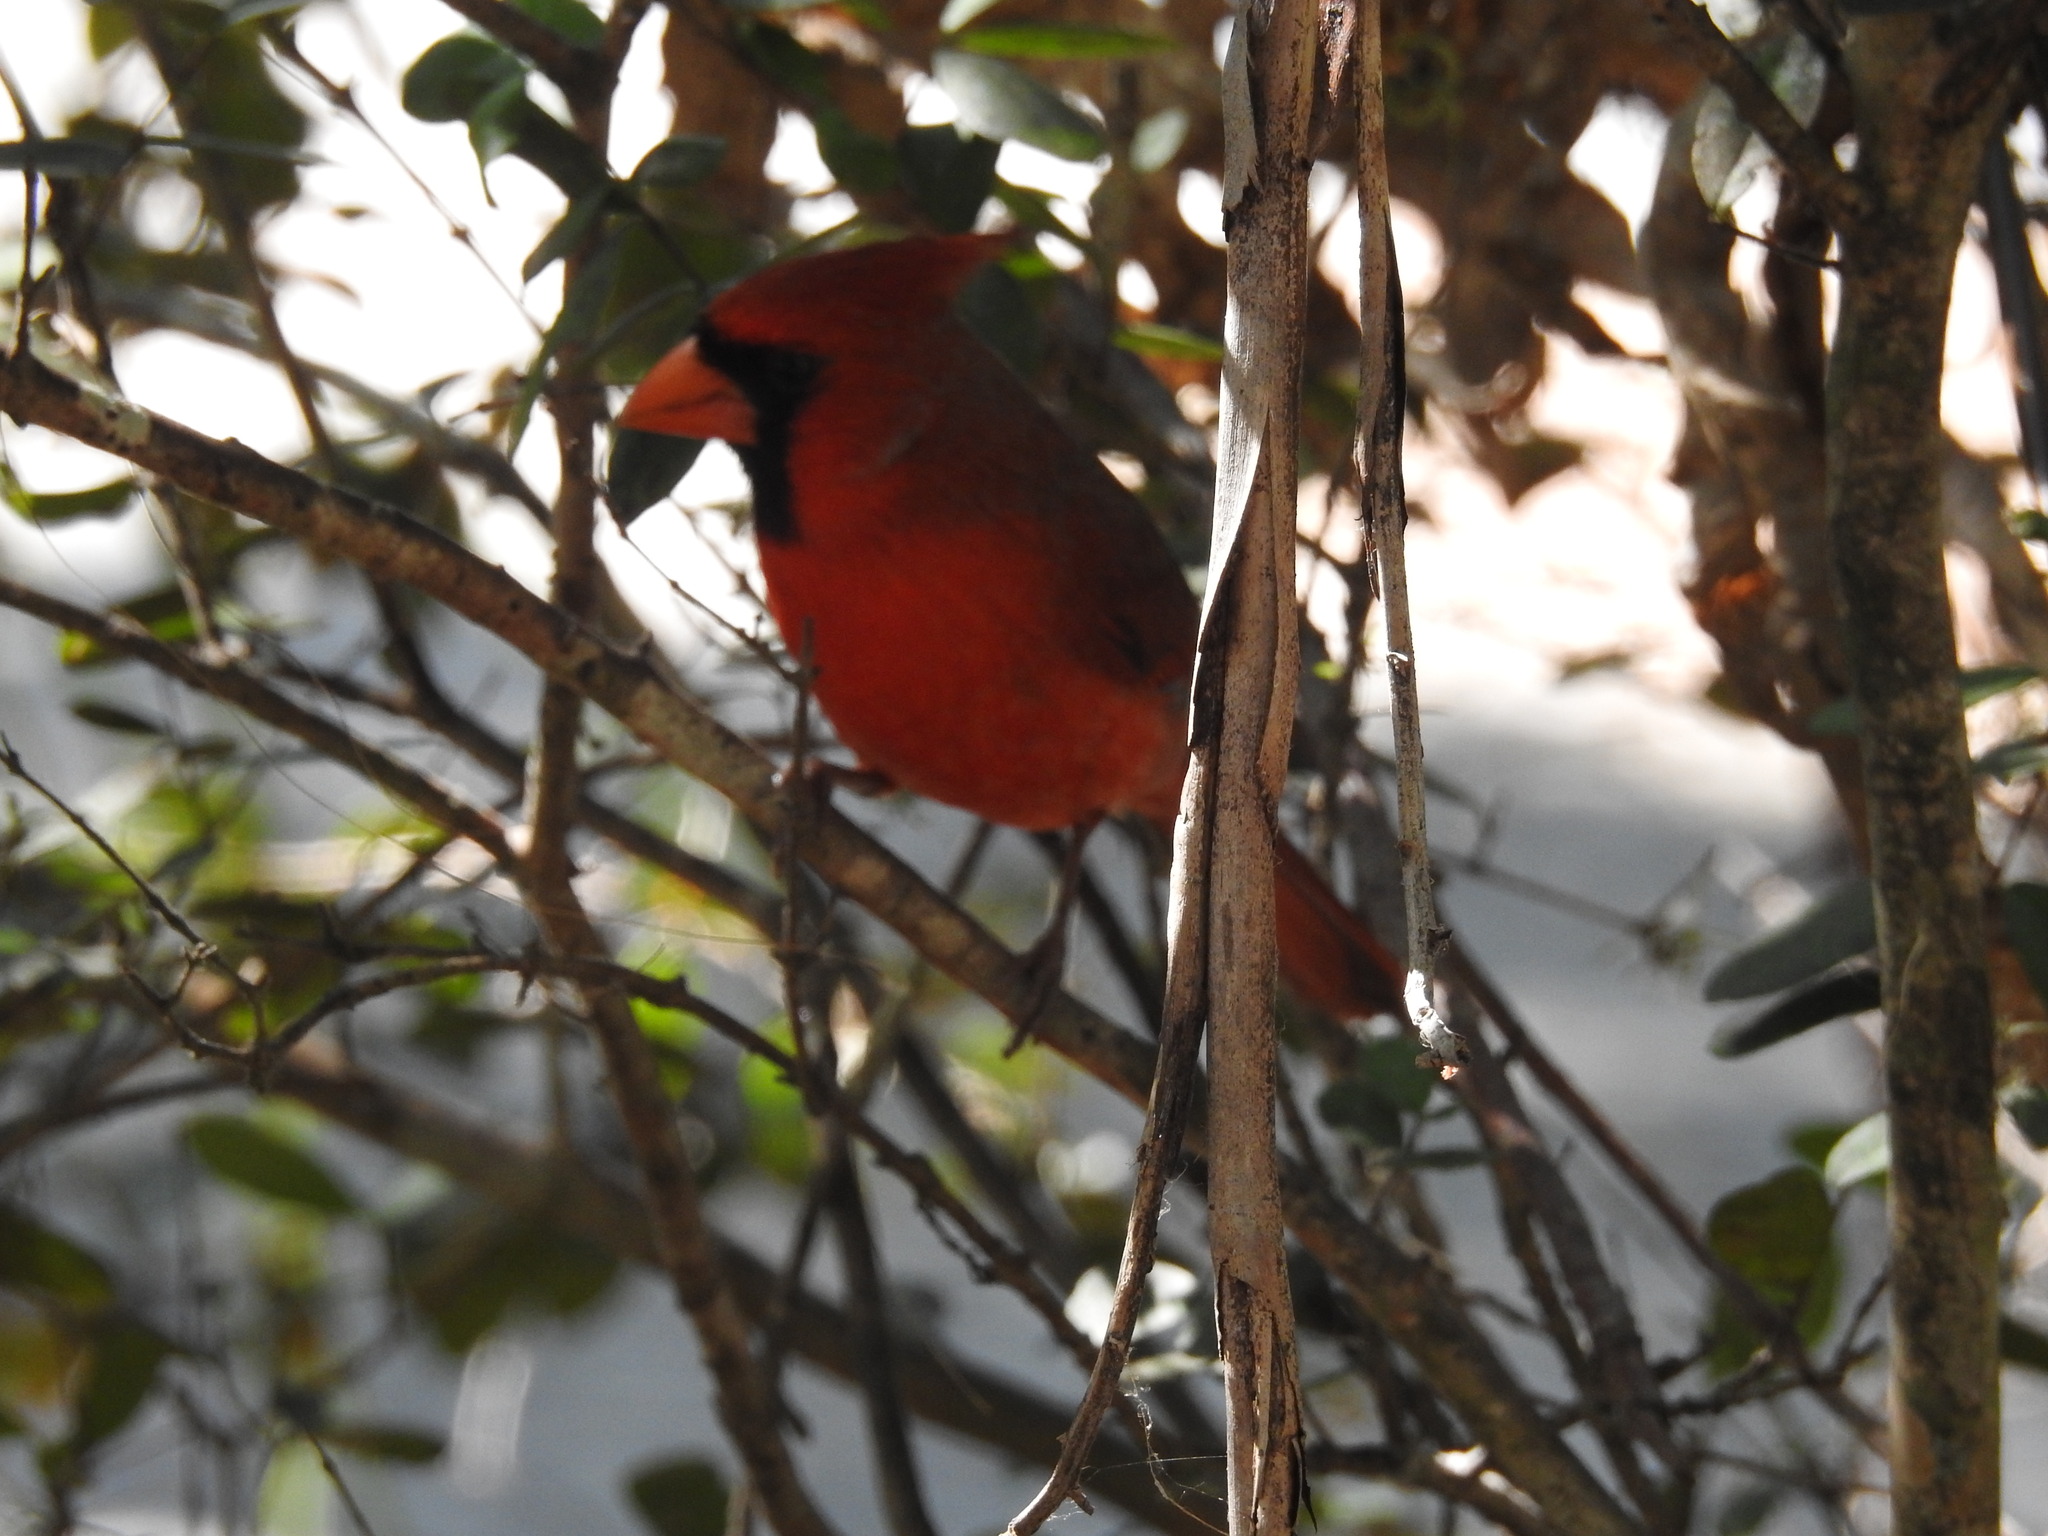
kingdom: Animalia
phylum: Chordata
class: Aves
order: Passeriformes
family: Cardinalidae
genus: Cardinalis
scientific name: Cardinalis cardinalis
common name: Northern cardinal
